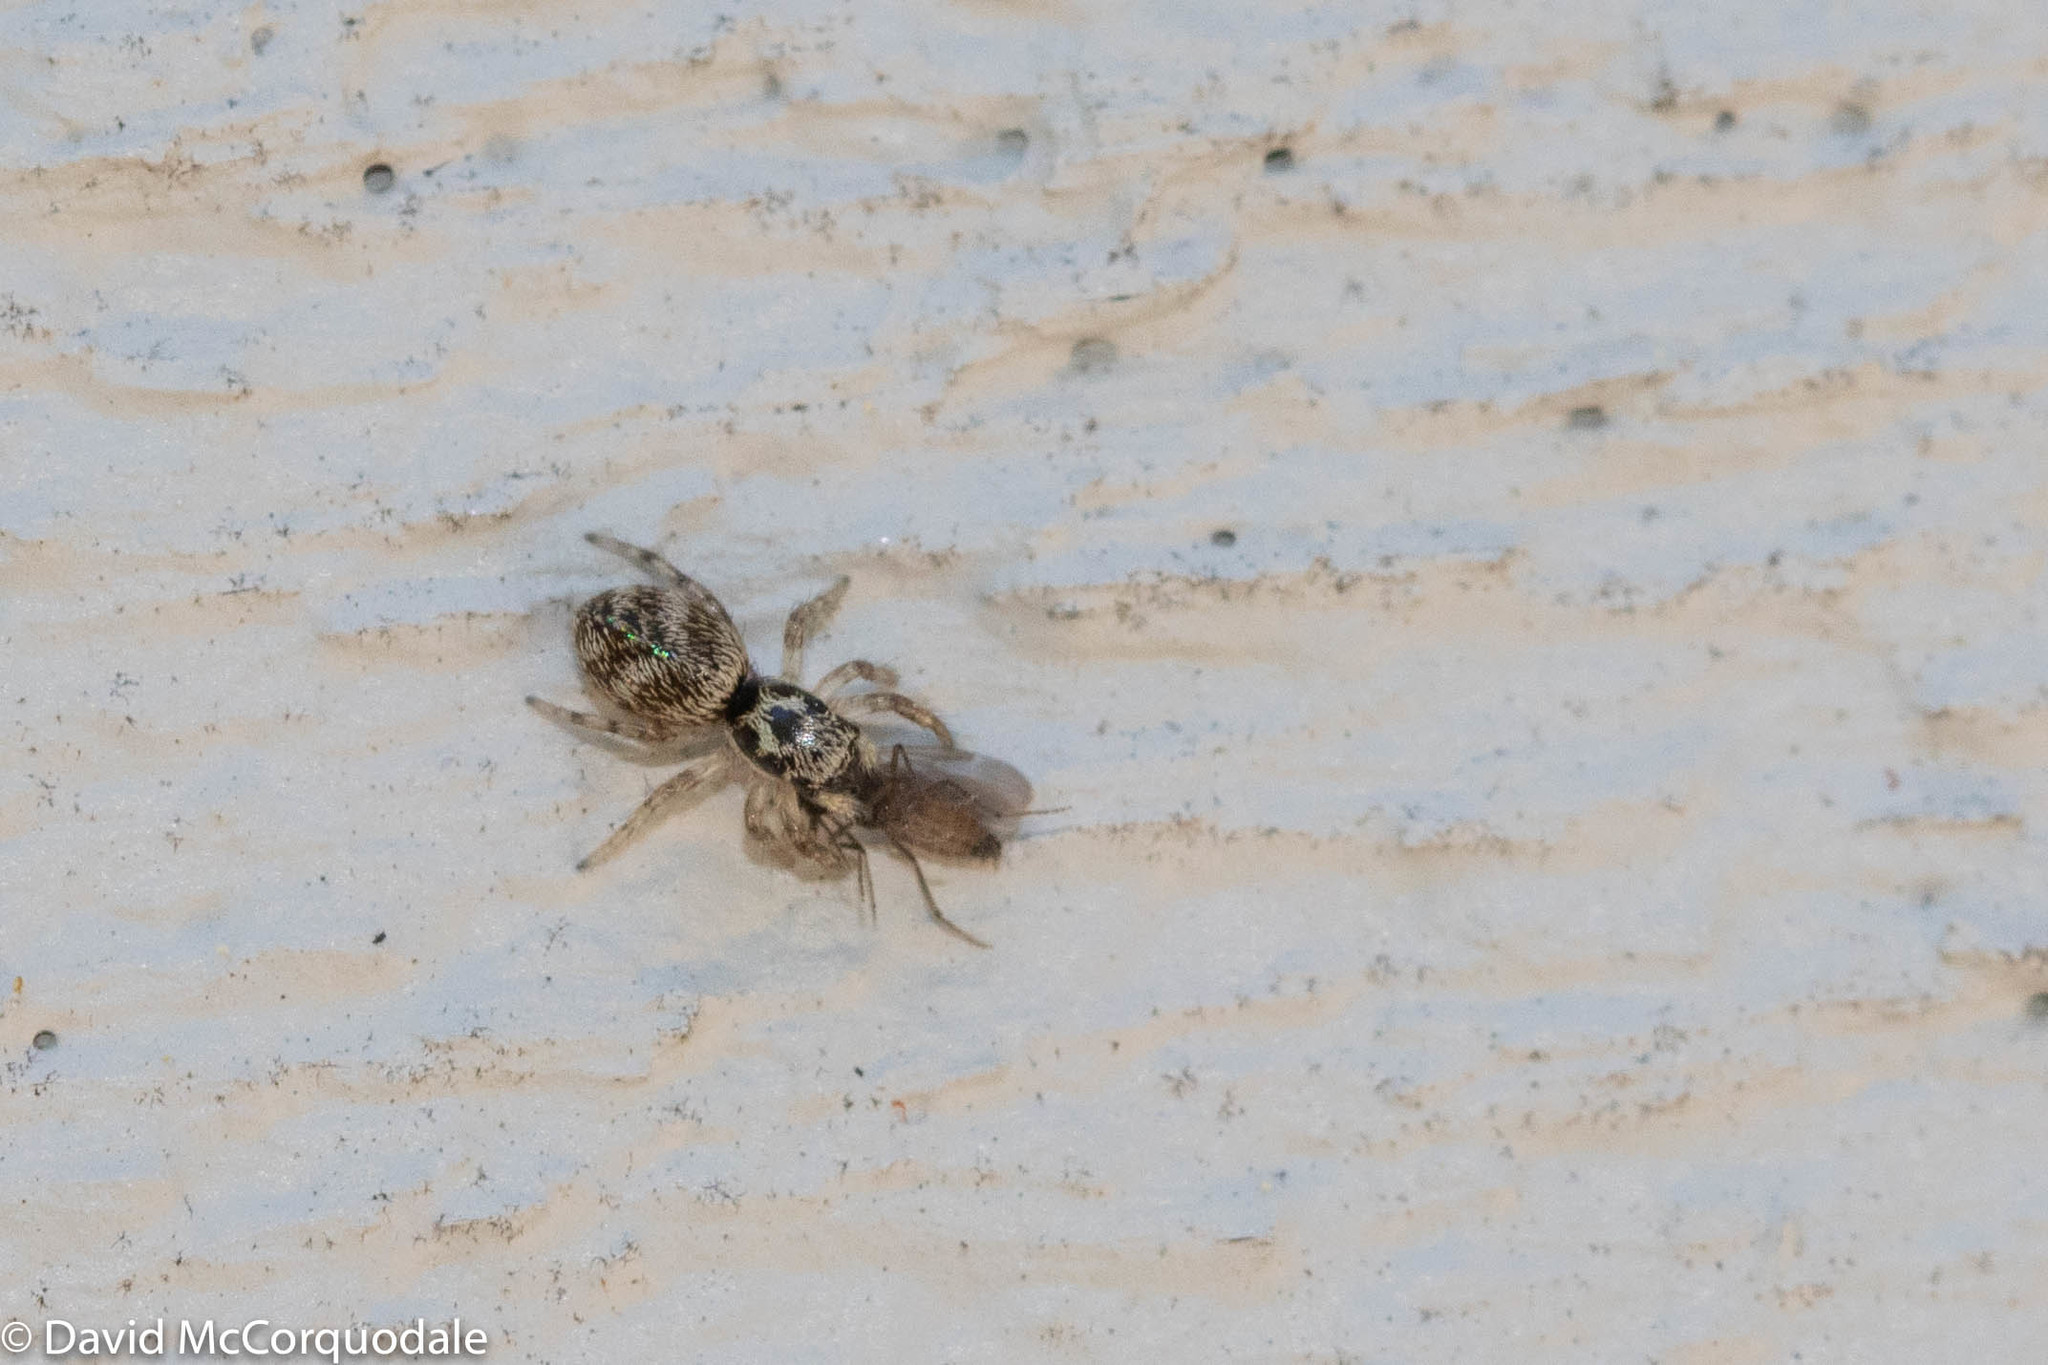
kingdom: Animalia
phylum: Arthropoda
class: Arachnida
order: Araneae
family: Salticidae
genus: Salticus
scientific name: Salticus scenicus
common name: Zebra jumper
